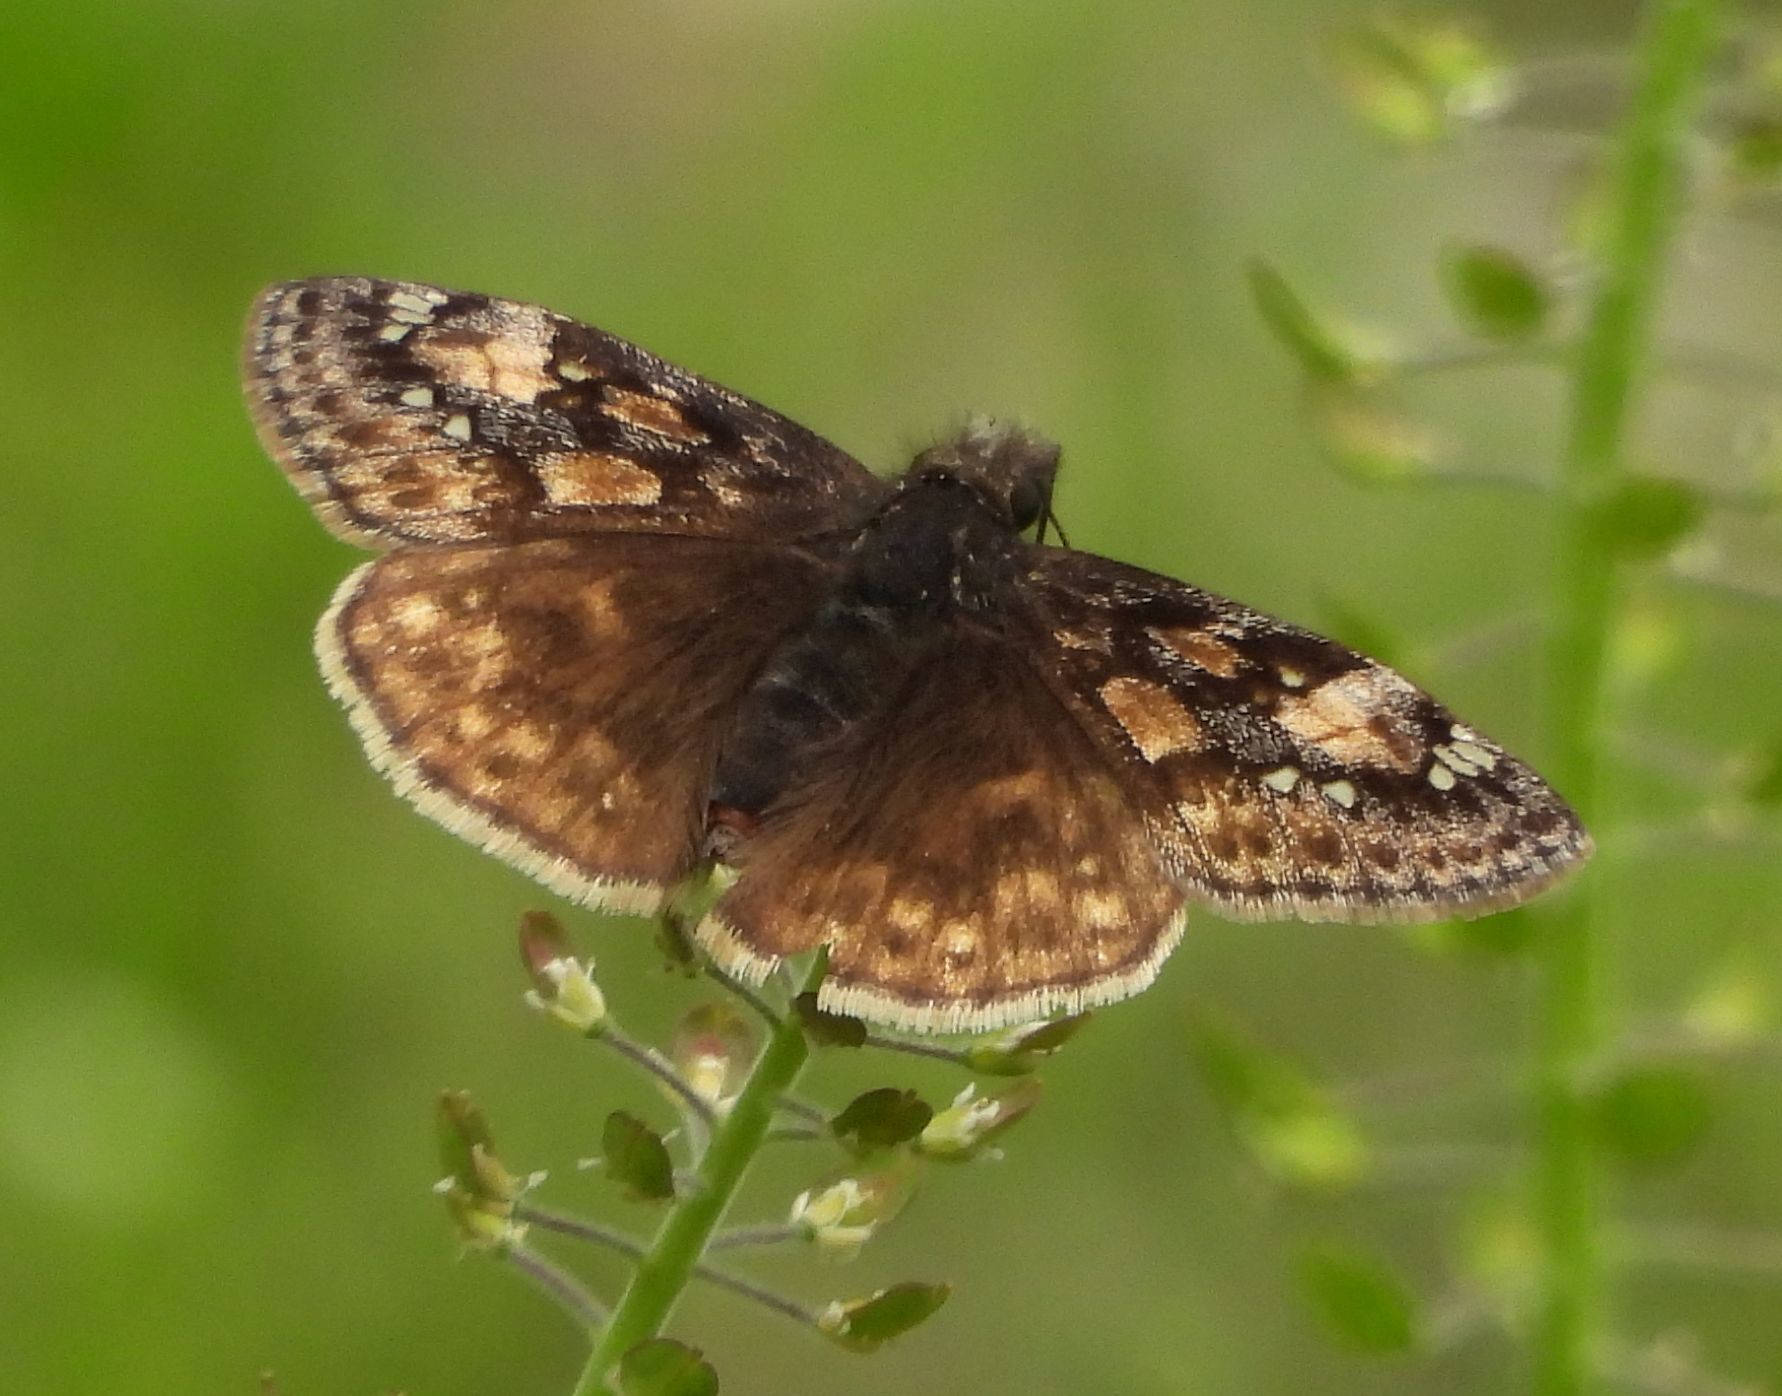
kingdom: Animalia
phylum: Arthropoda
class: Insecta
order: Lepidoptera
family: Hesperiidae
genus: Erynnis
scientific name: Erynnis juvenalis
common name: Juvenal's duskywing
